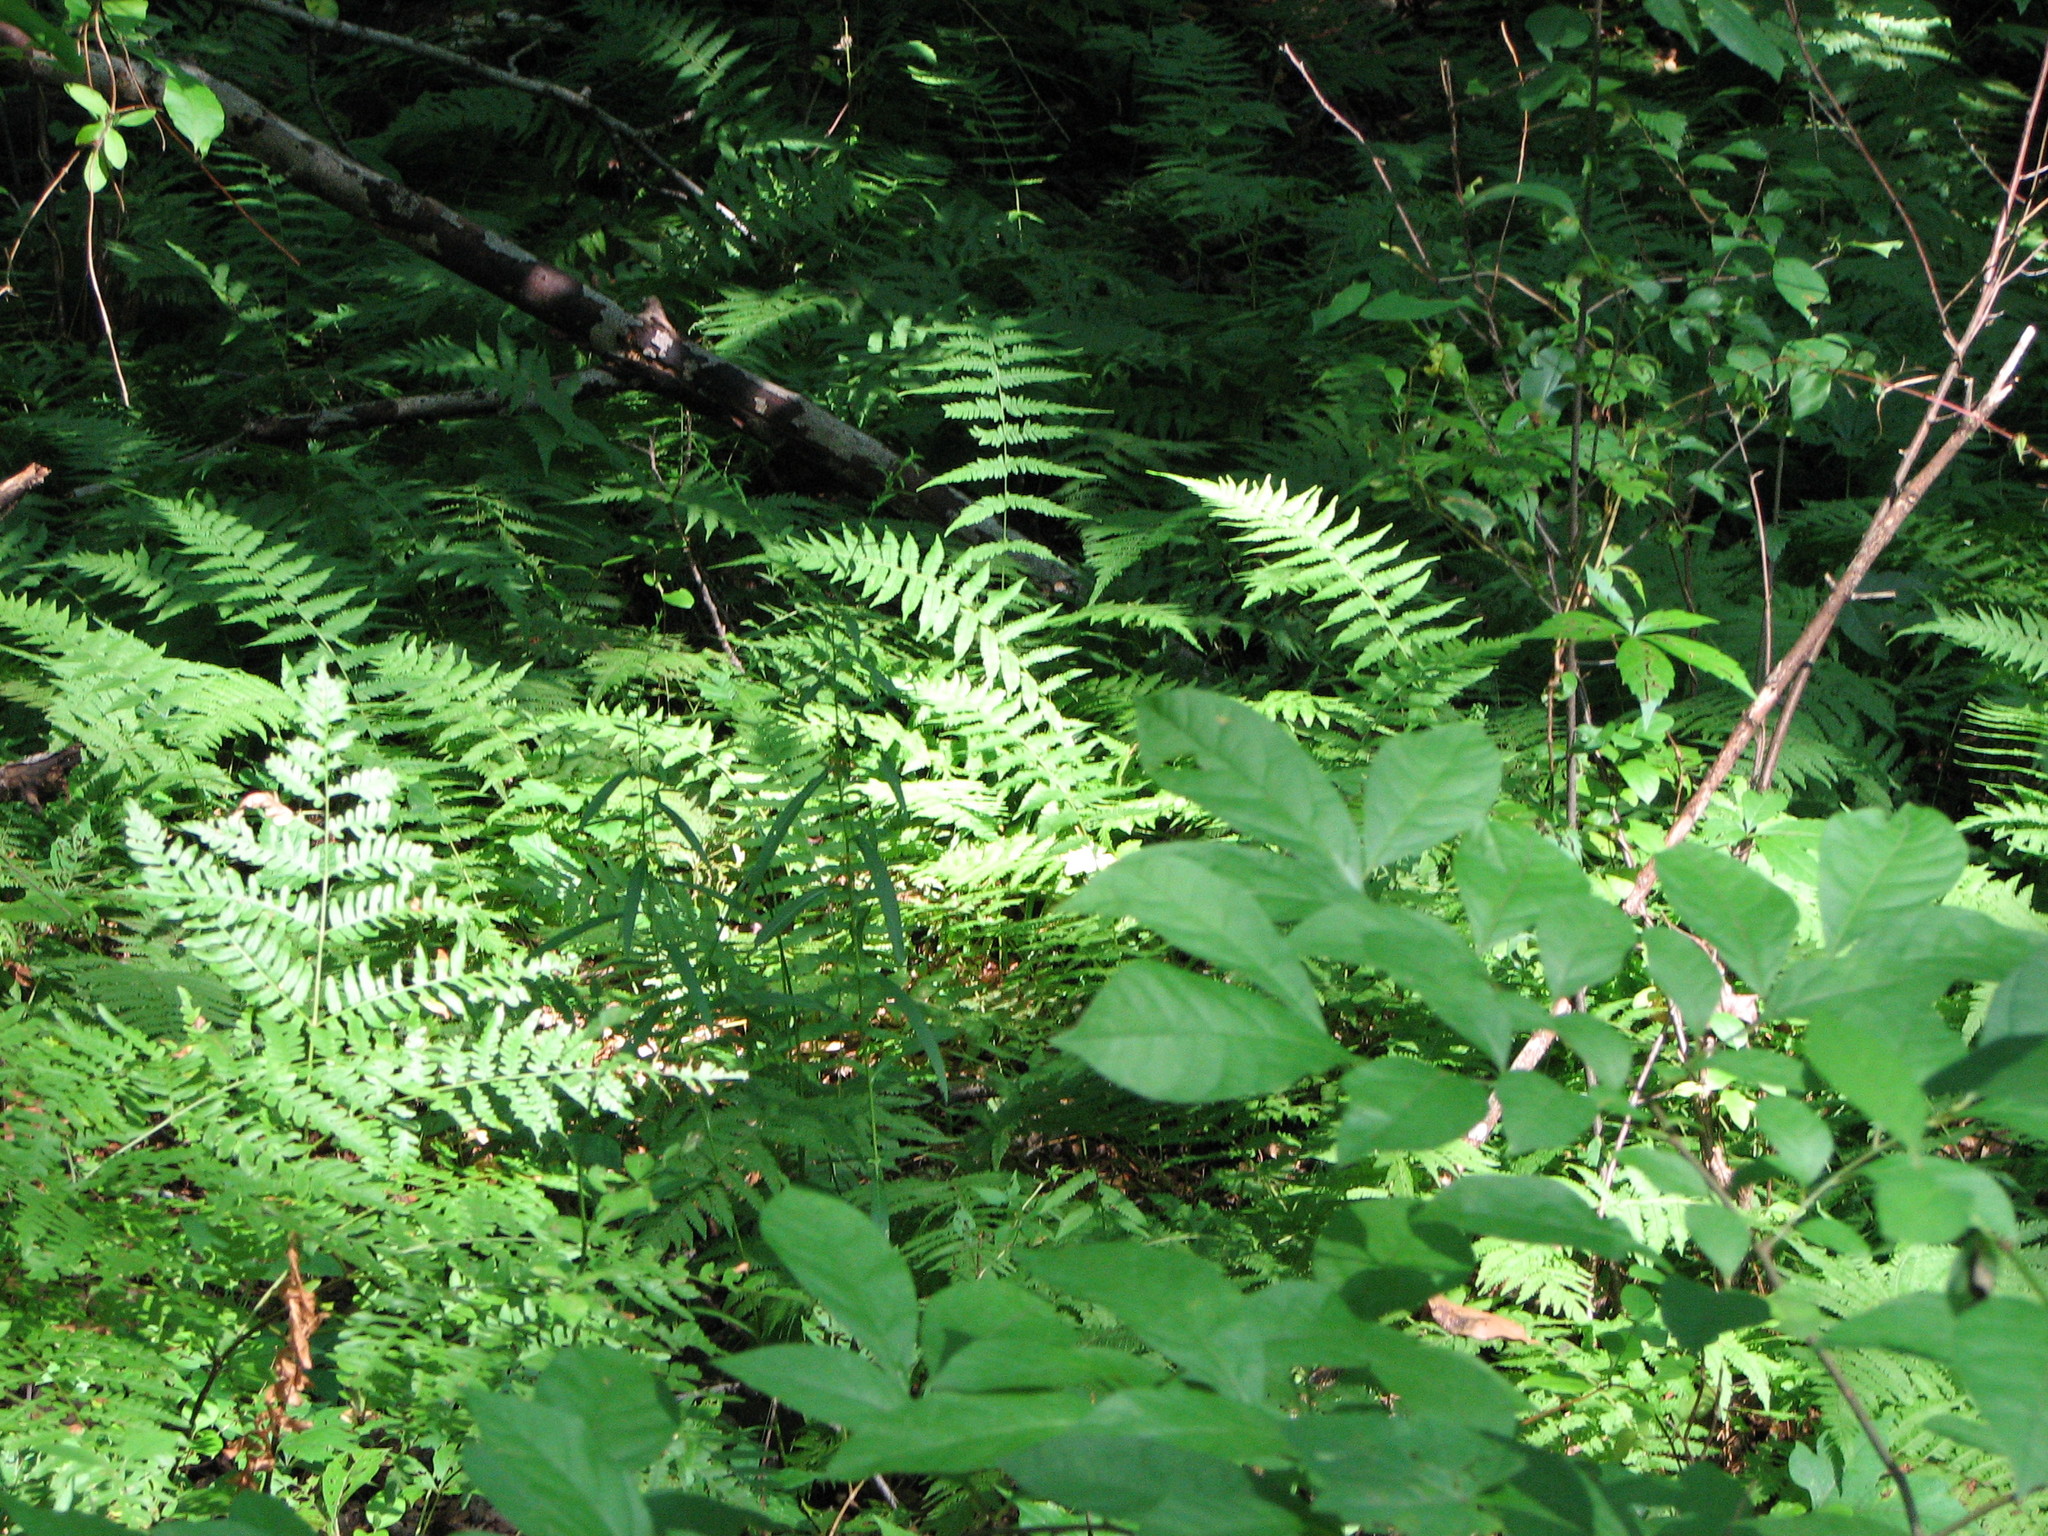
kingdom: Plantae
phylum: Tracheophyta
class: Polypodiopsida
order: Polypodiales
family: Thelypteridaceae
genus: Amauropelta
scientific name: Amauropelta noveboracensis
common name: New york fern
